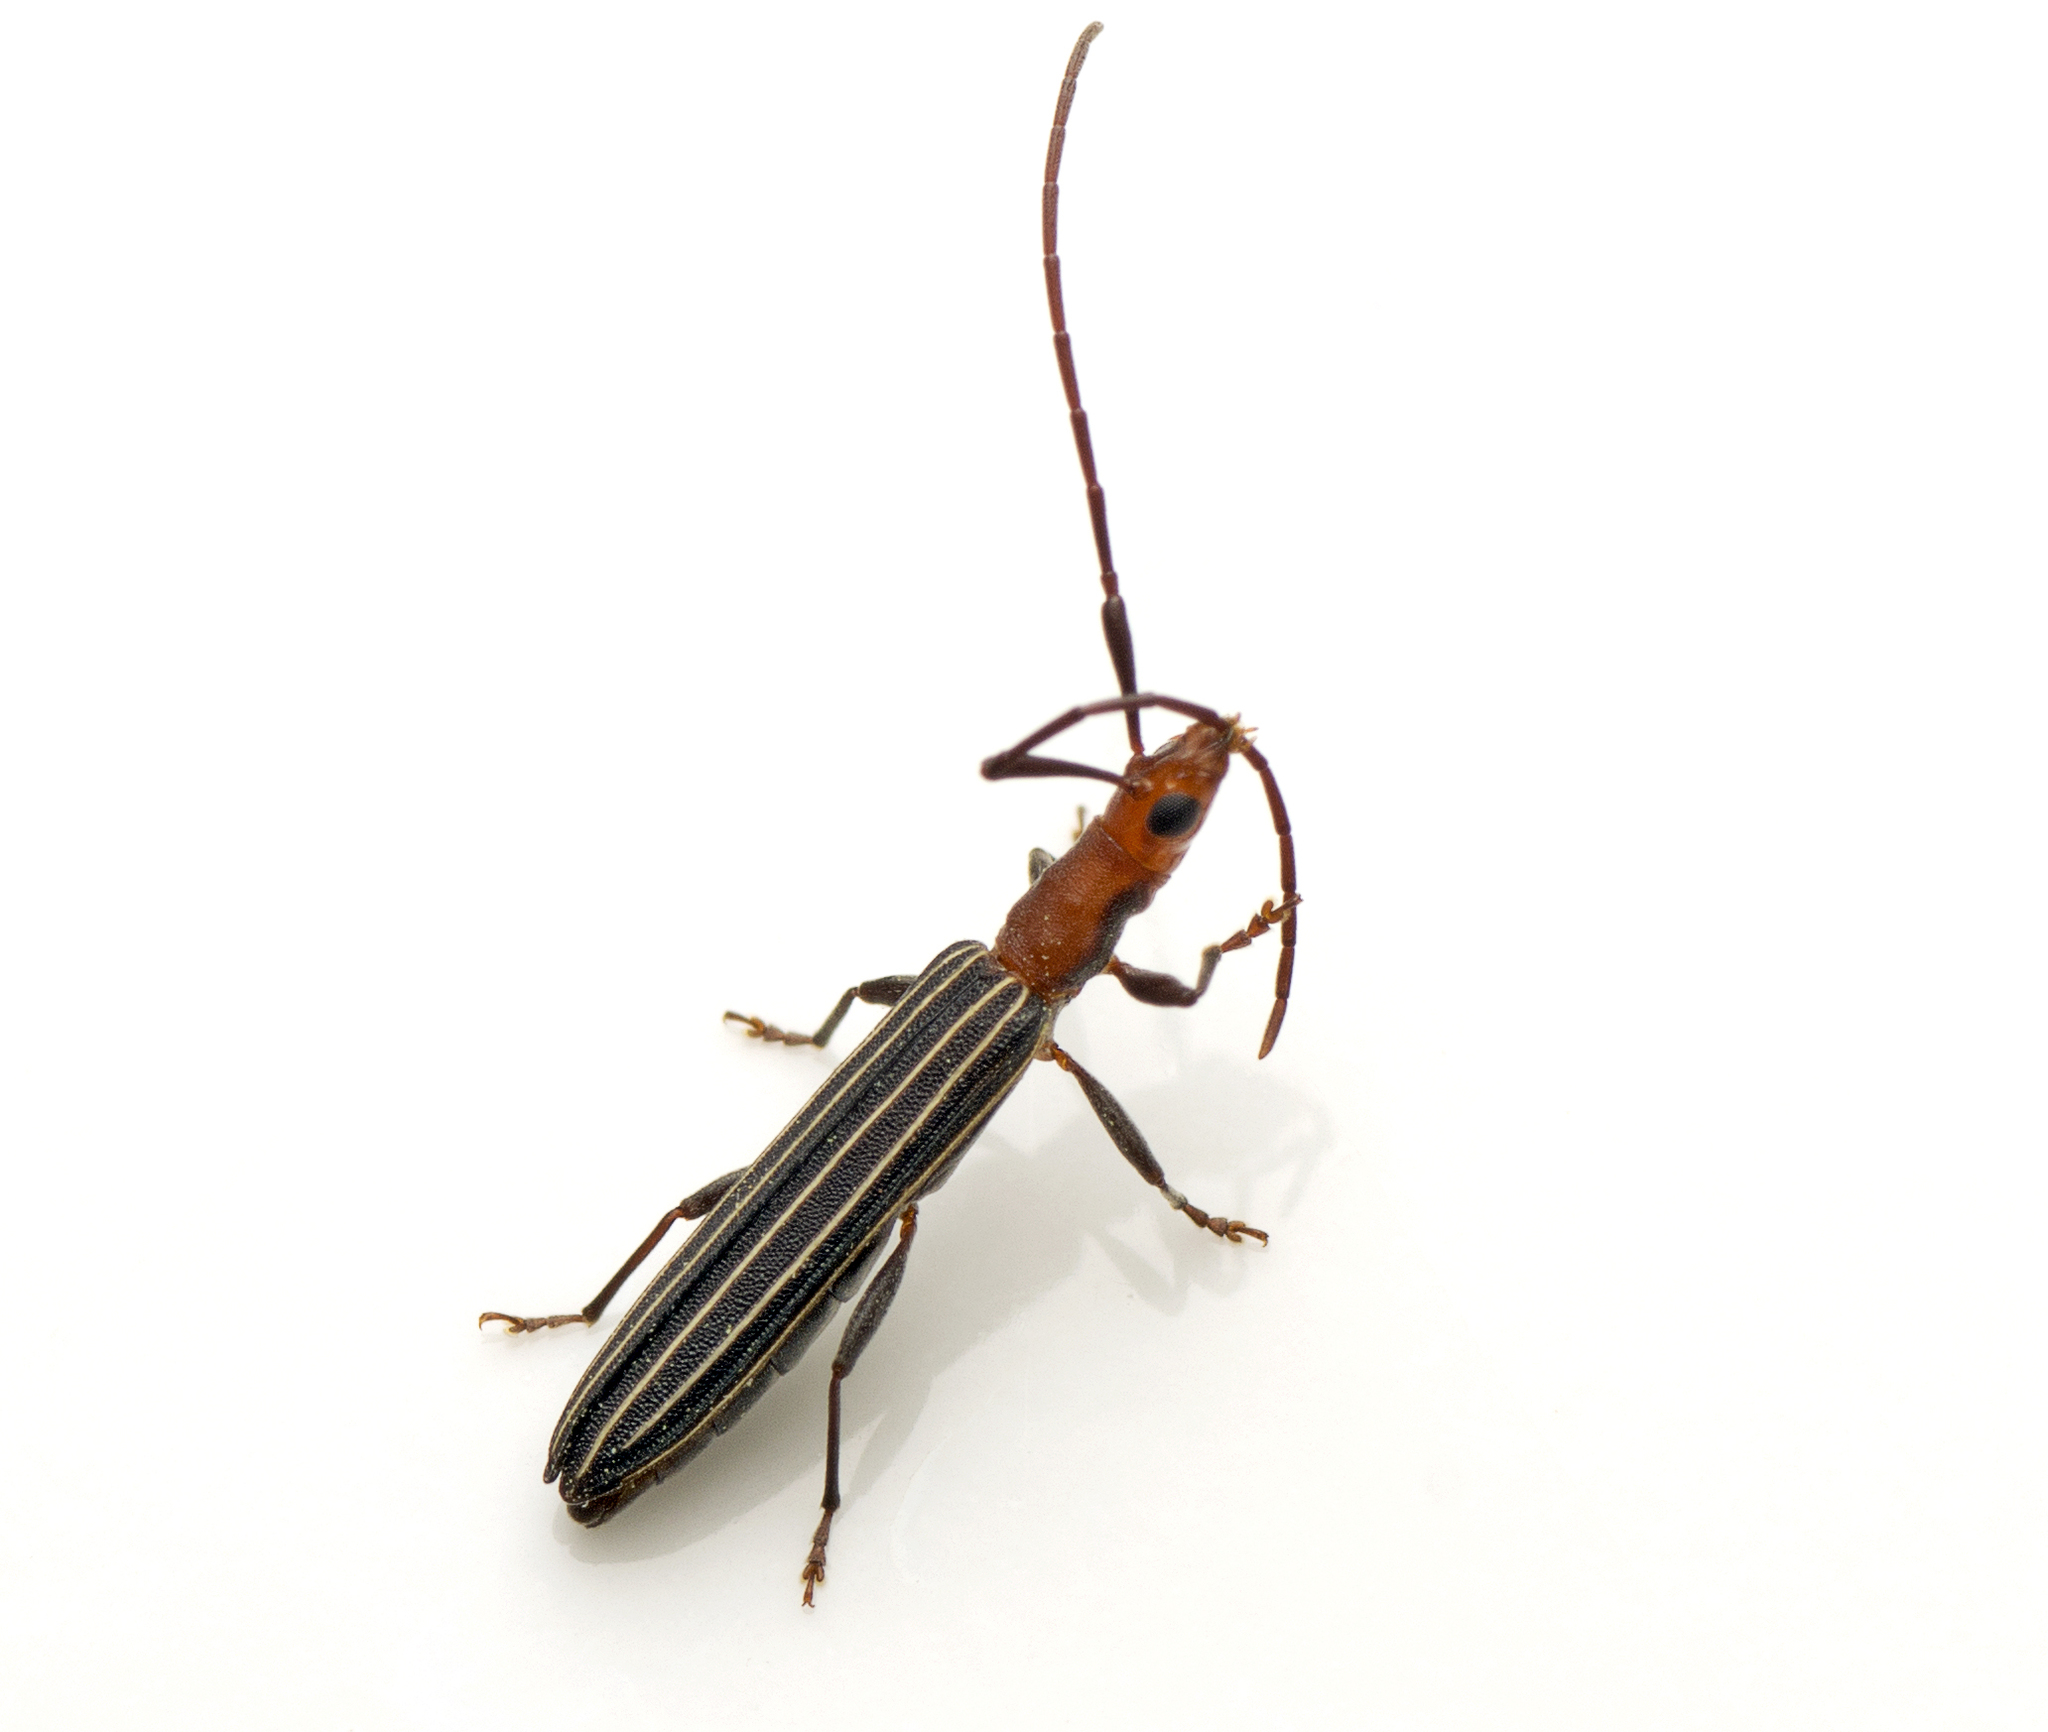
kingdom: Animalia
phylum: Arthropoda
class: Insecta
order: Coleoptera
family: Cerambycidae
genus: Syllitus
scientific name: Syllitus rectus
